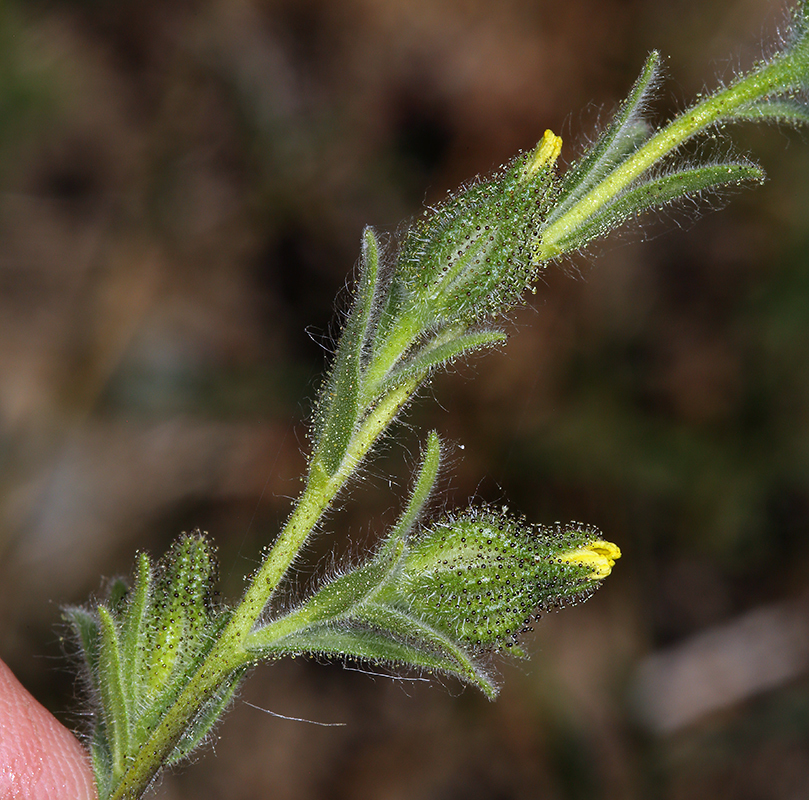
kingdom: Plantae
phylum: Tracheophyta
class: Magnoliopsida
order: Asterales
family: Asteraceae
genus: Madia
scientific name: Madia gracilis
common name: Grassy tarweed
